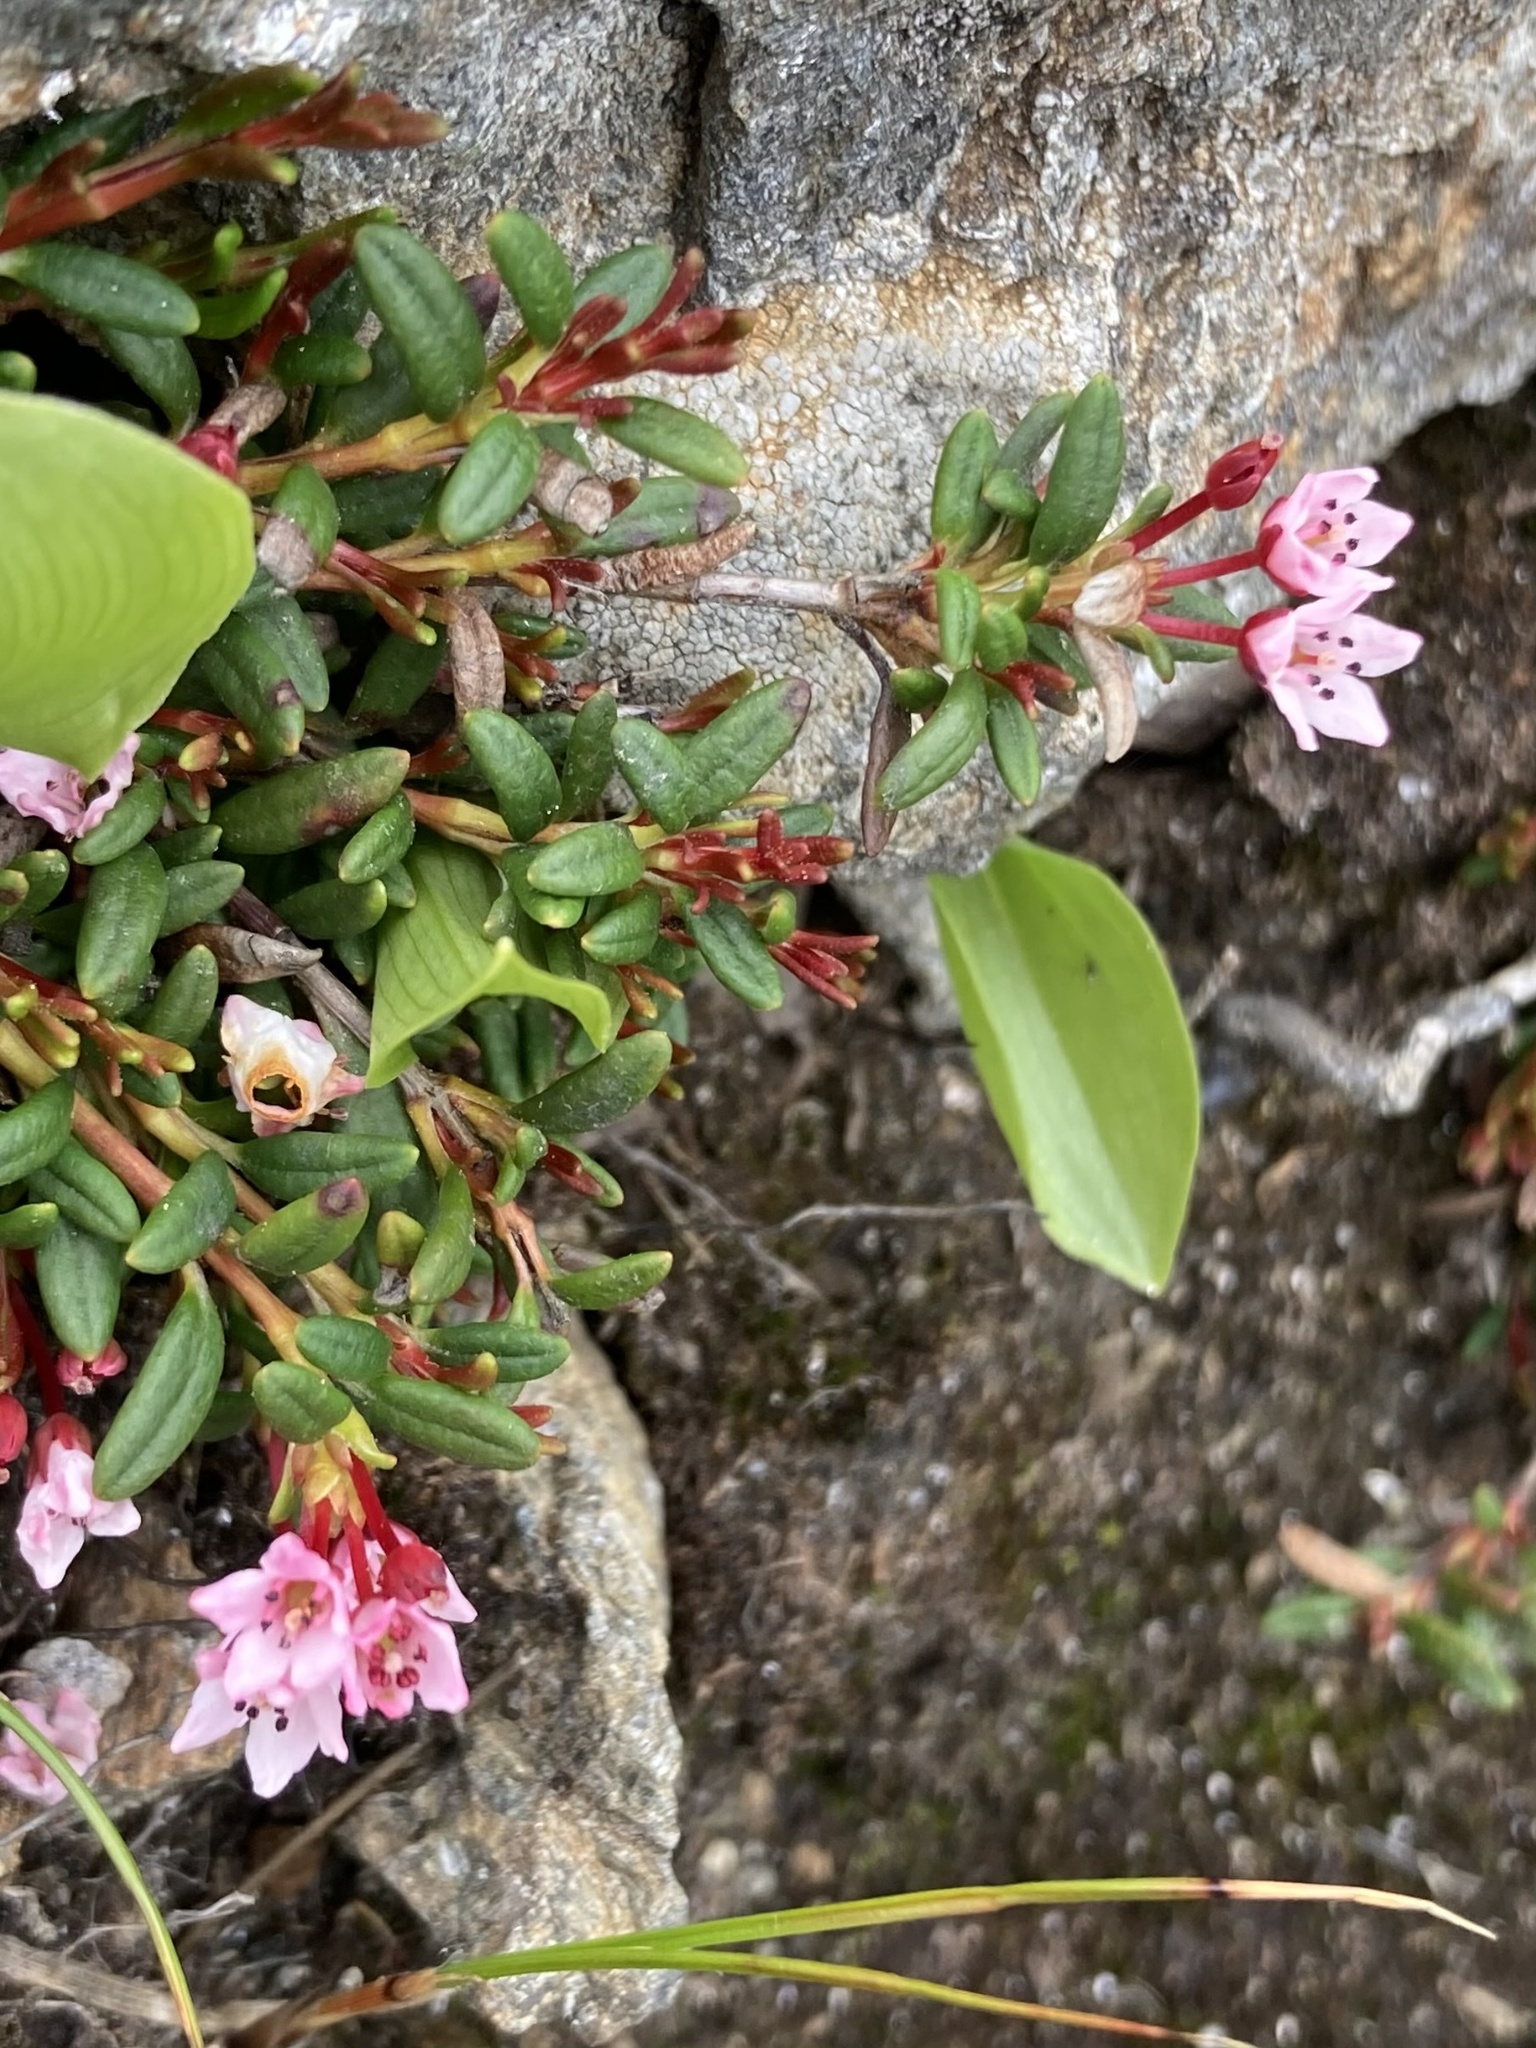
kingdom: Plantae
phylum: Tracheophyta
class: Magnoliopsida
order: Ericales
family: Ericaceae
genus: Kalmia
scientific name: Kalmia procumbens
